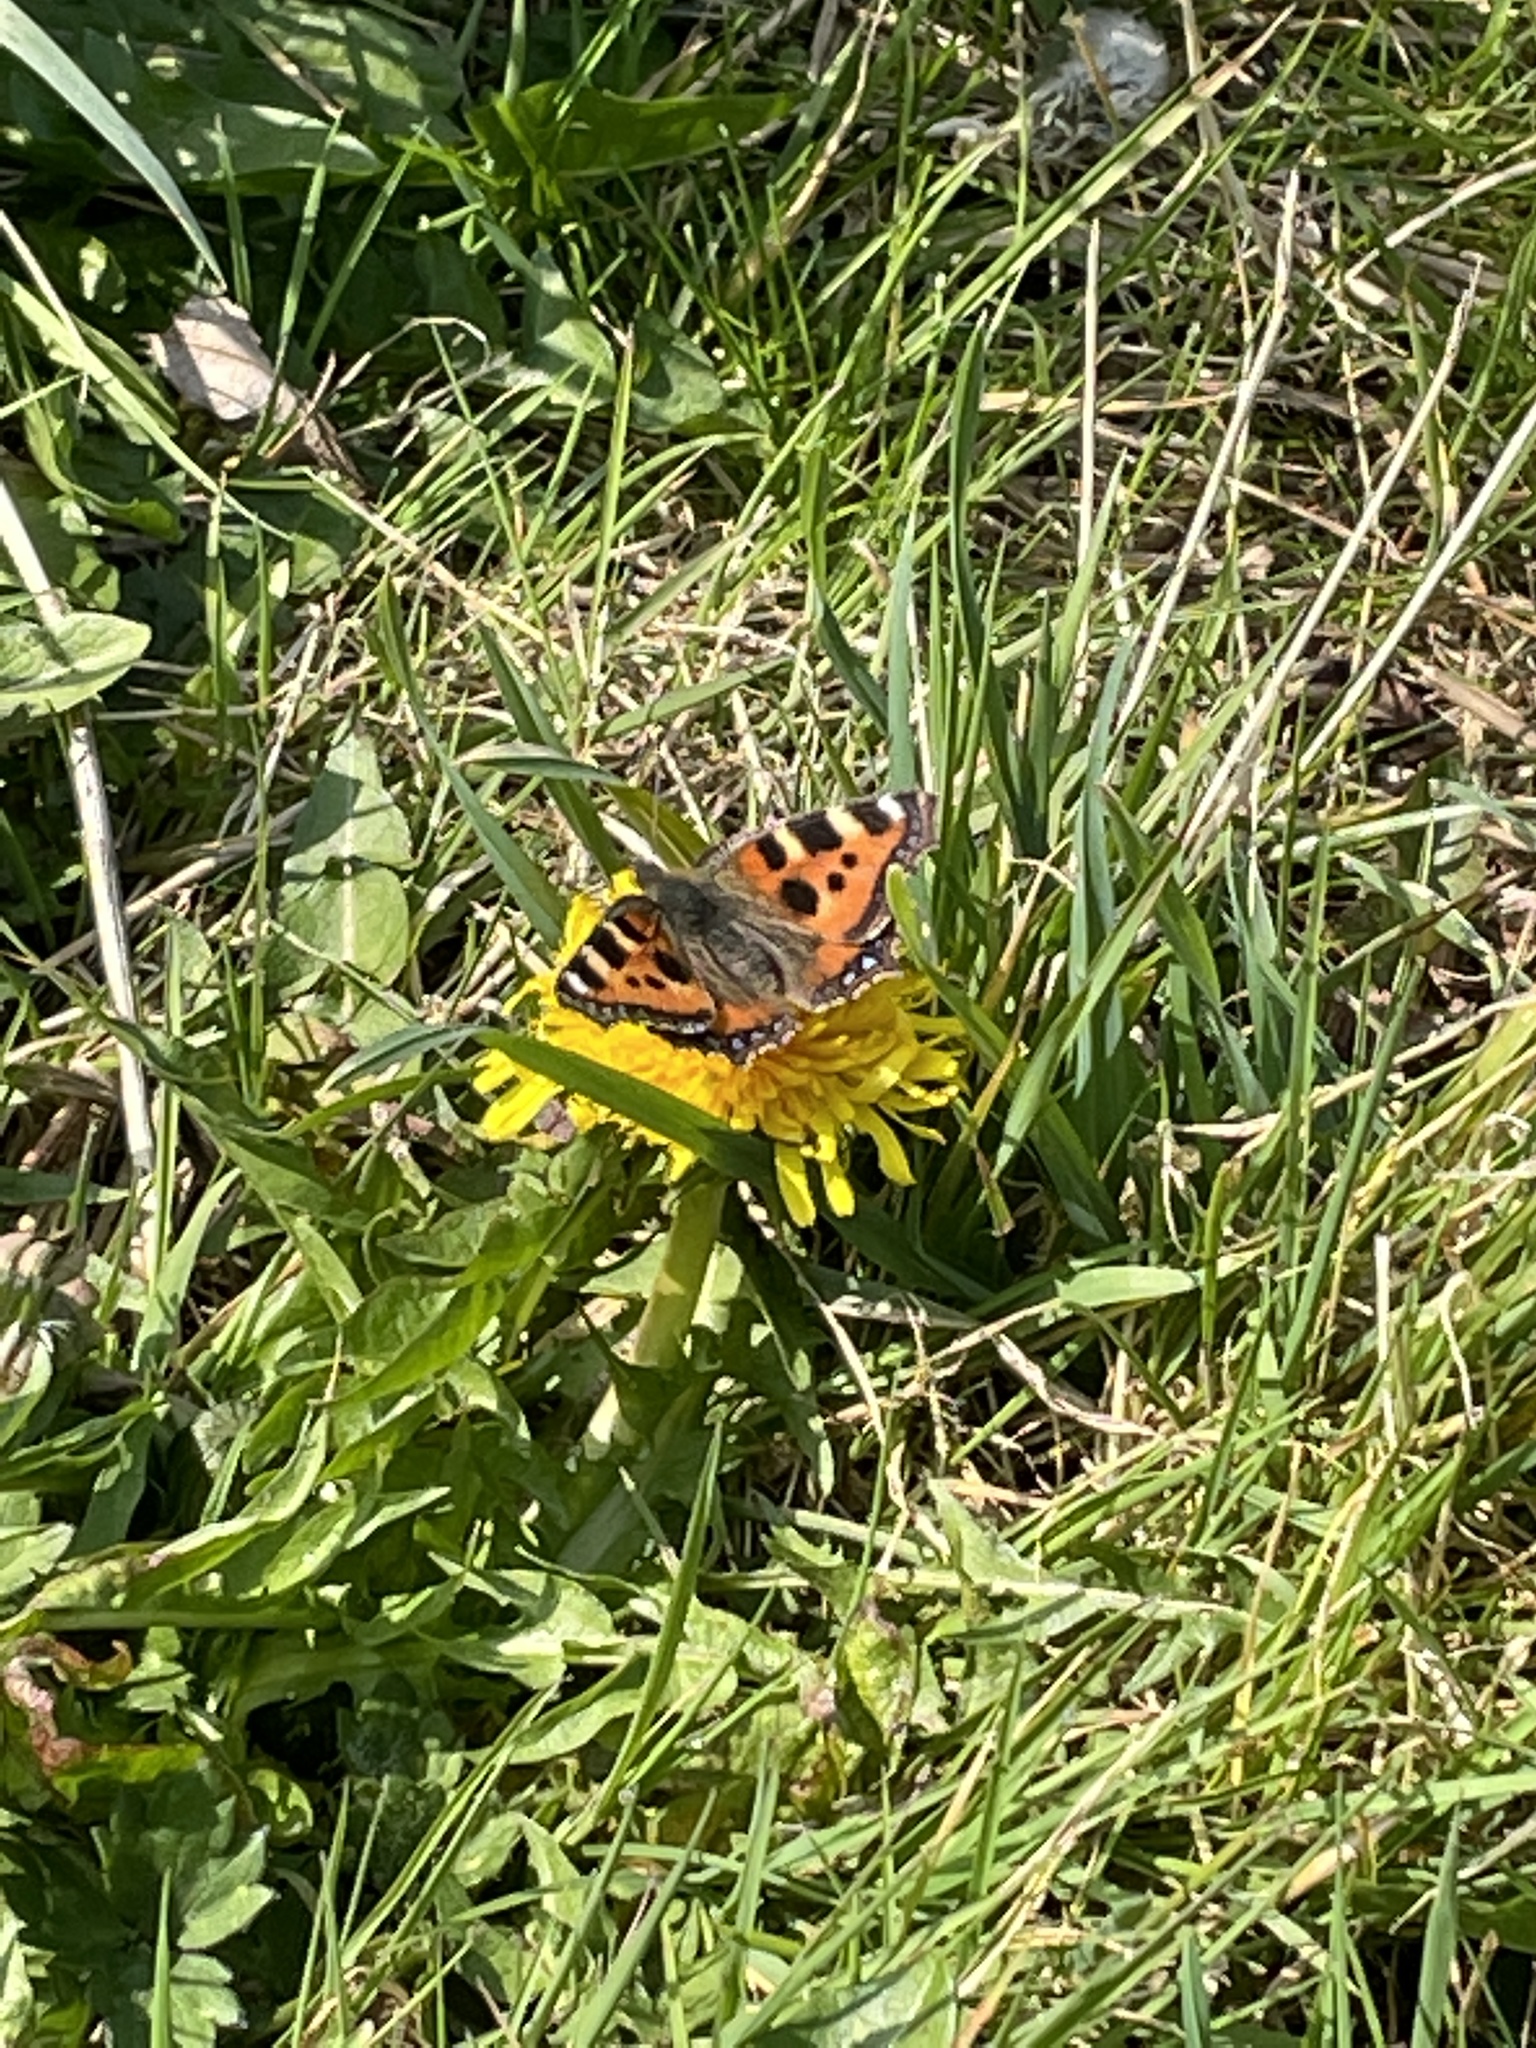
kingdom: Animalia
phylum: Arthropoda
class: Insecta
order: Lepidoptera
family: Nymphalidae
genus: Aglais
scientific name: Aglais urticae
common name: Small tortoiseshell
